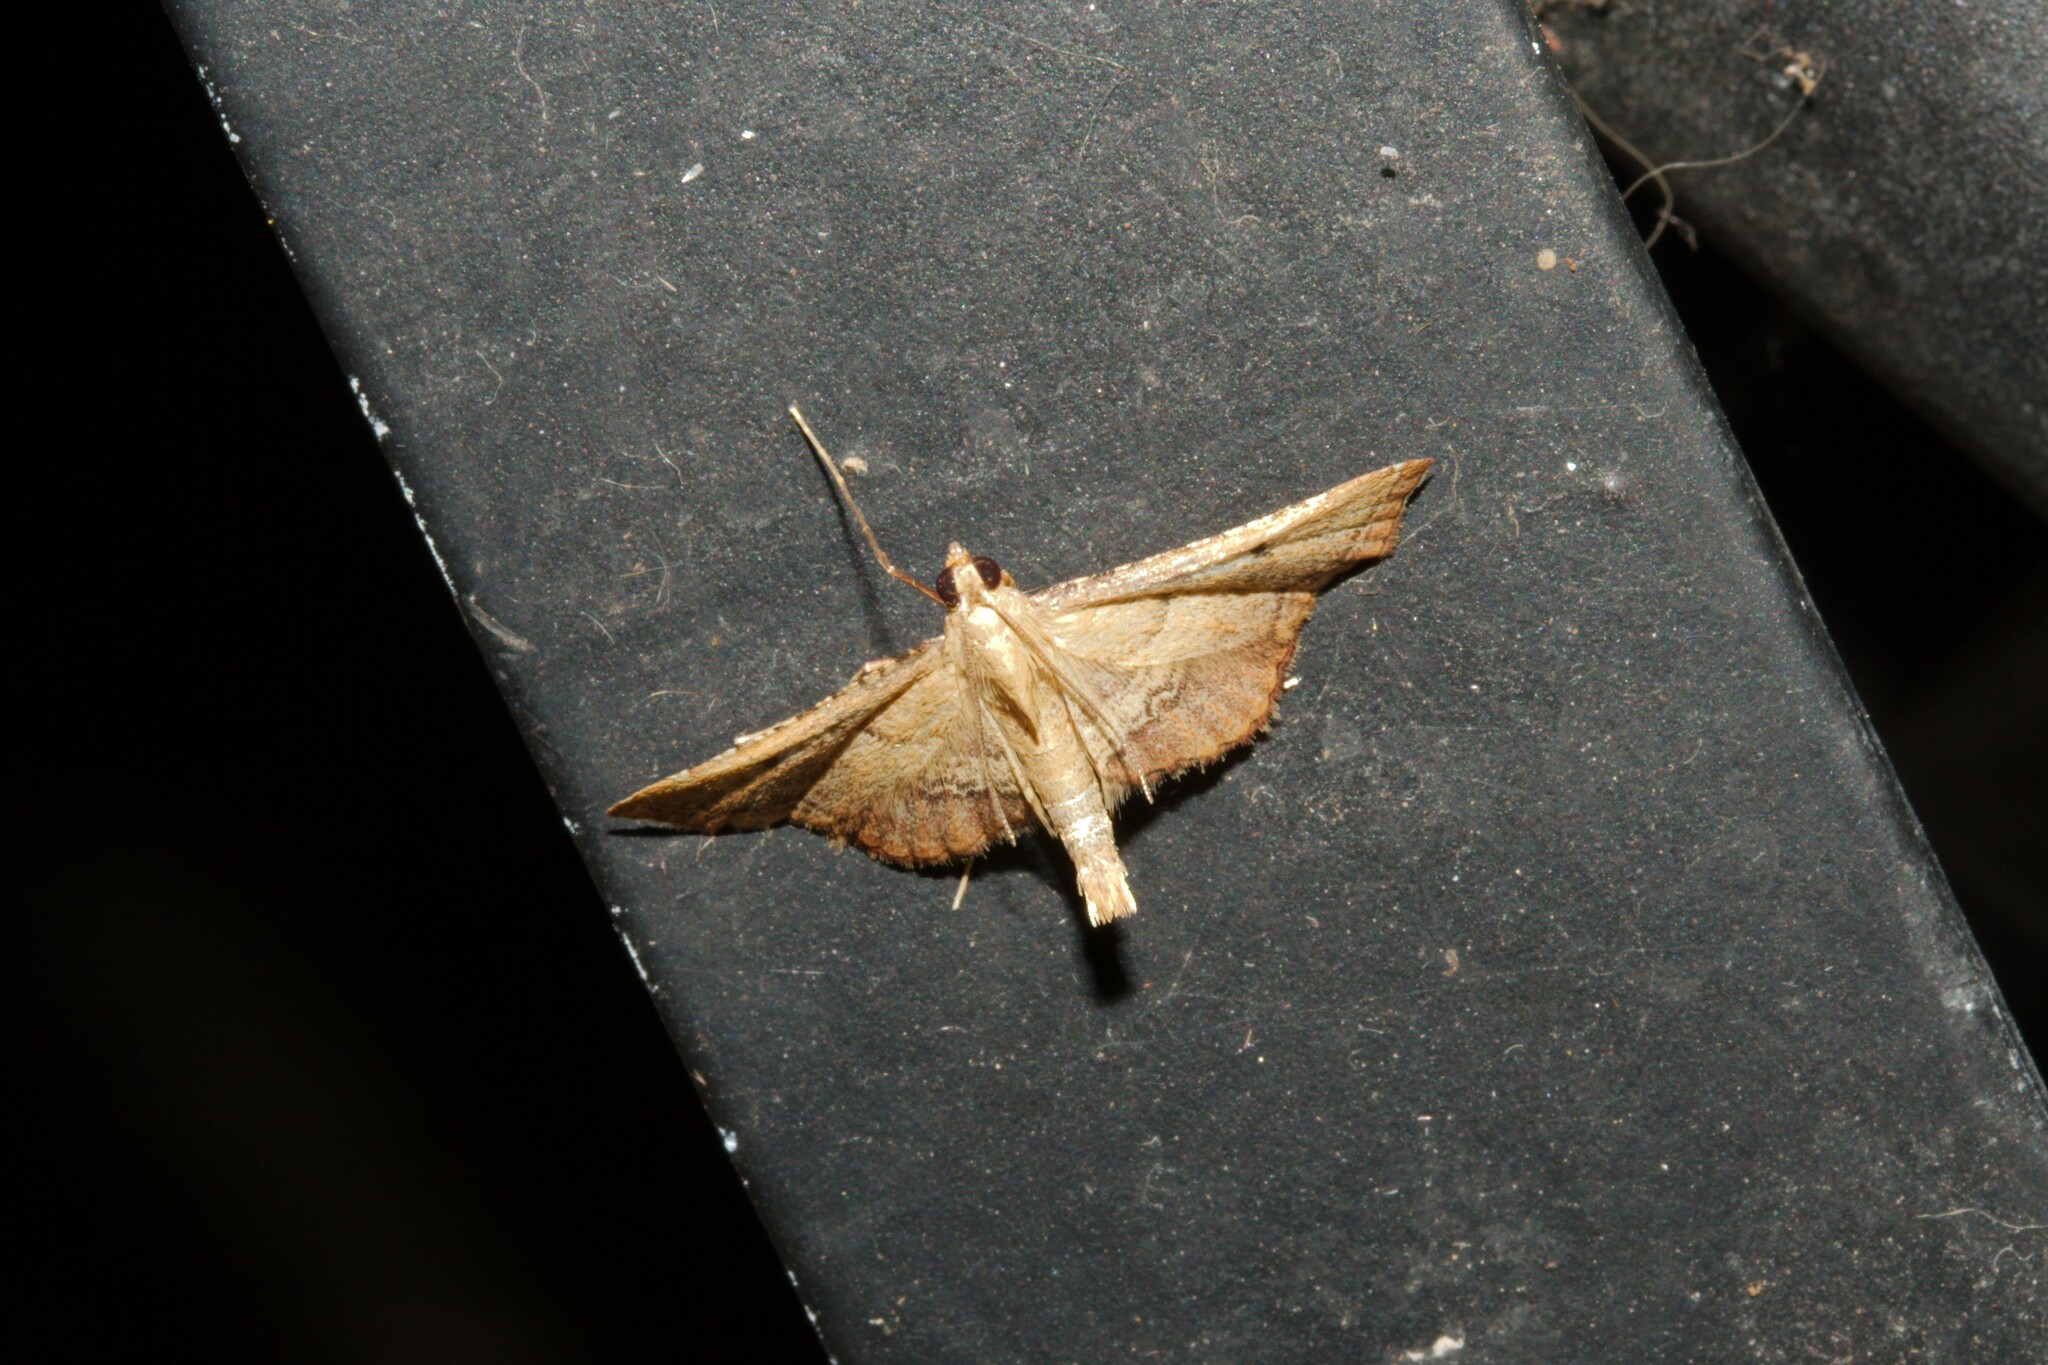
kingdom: Animalia
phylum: Arthropoda
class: Insecta
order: Lepidoptera
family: Pyralidae
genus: Endotricha
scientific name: Endotricha flammealis
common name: Rosy tabby
